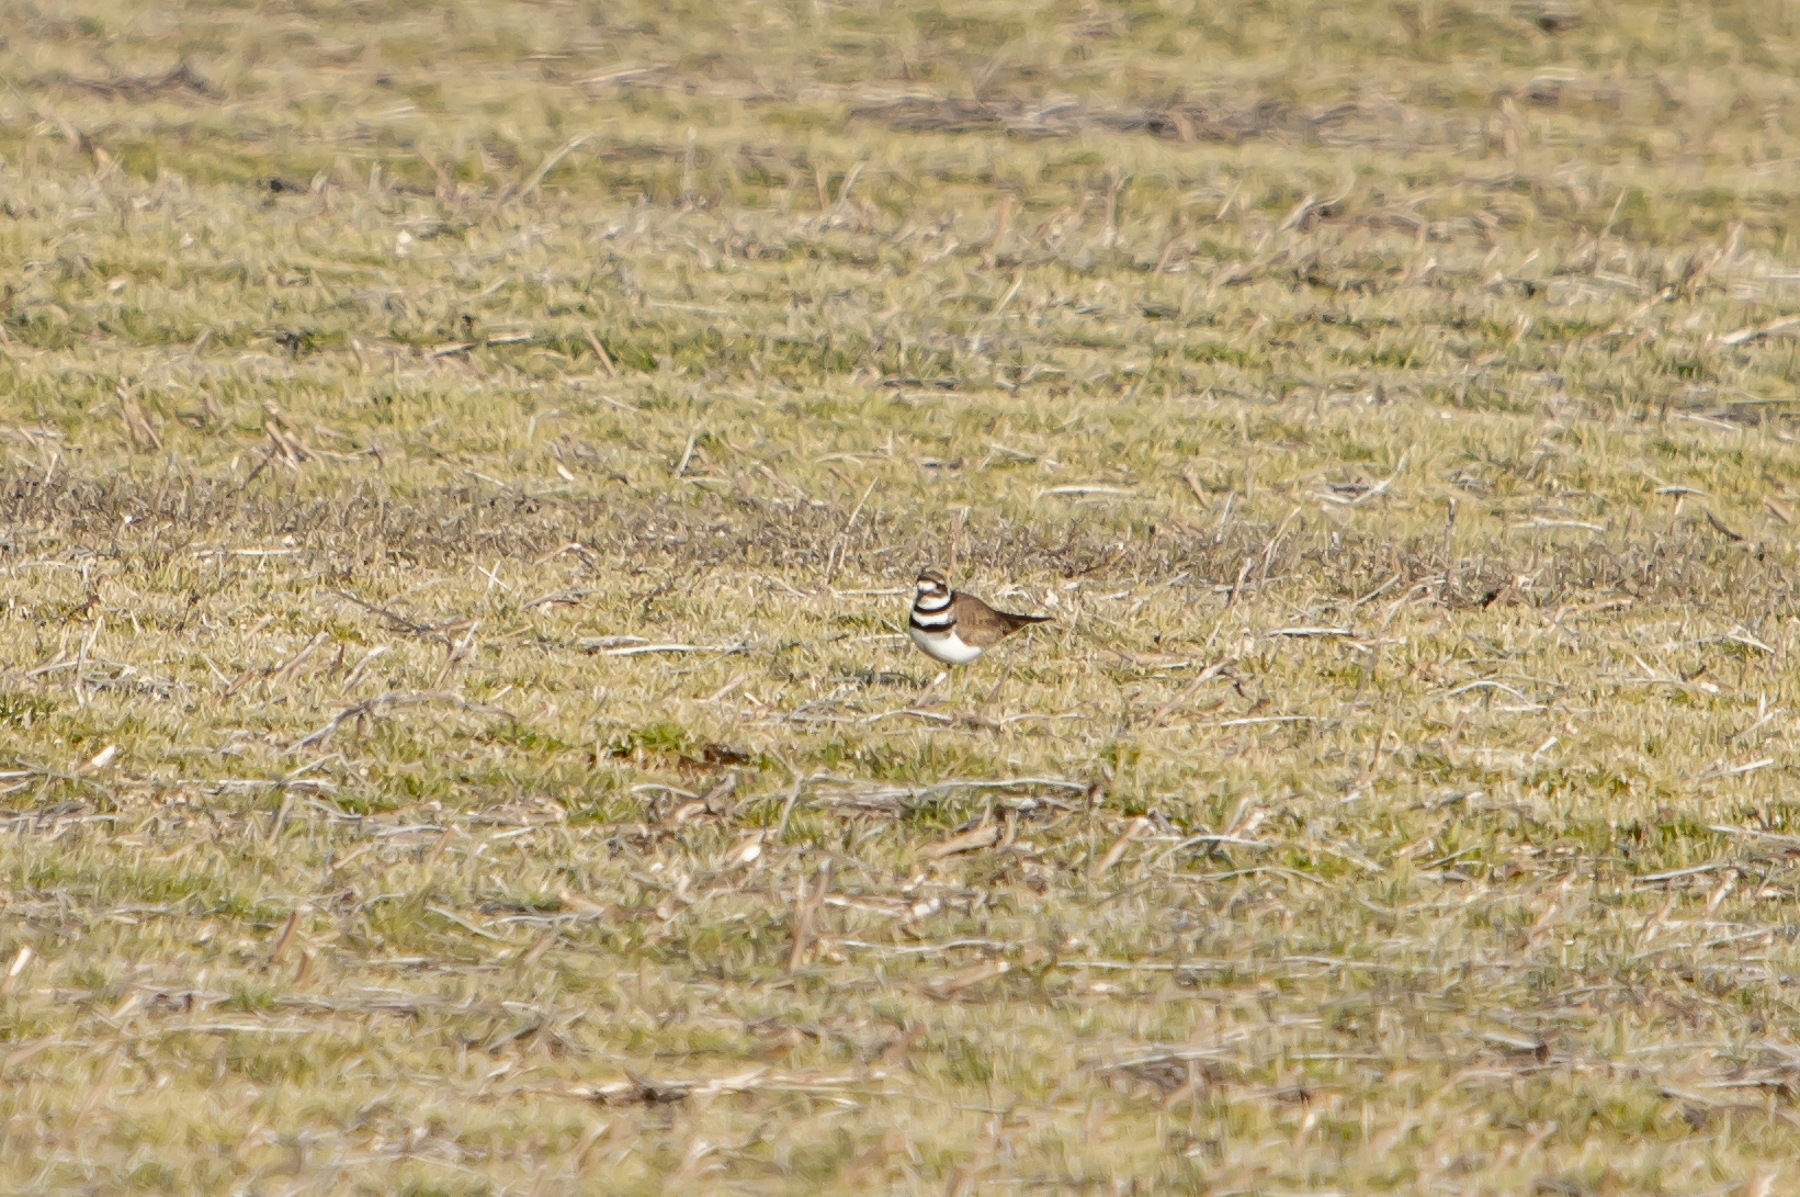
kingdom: Animalia
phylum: Chordata
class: Aves
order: Charadriiformes
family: Charadriidae
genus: Charadrius
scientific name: Charadrius vociferus
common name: Killdeer
